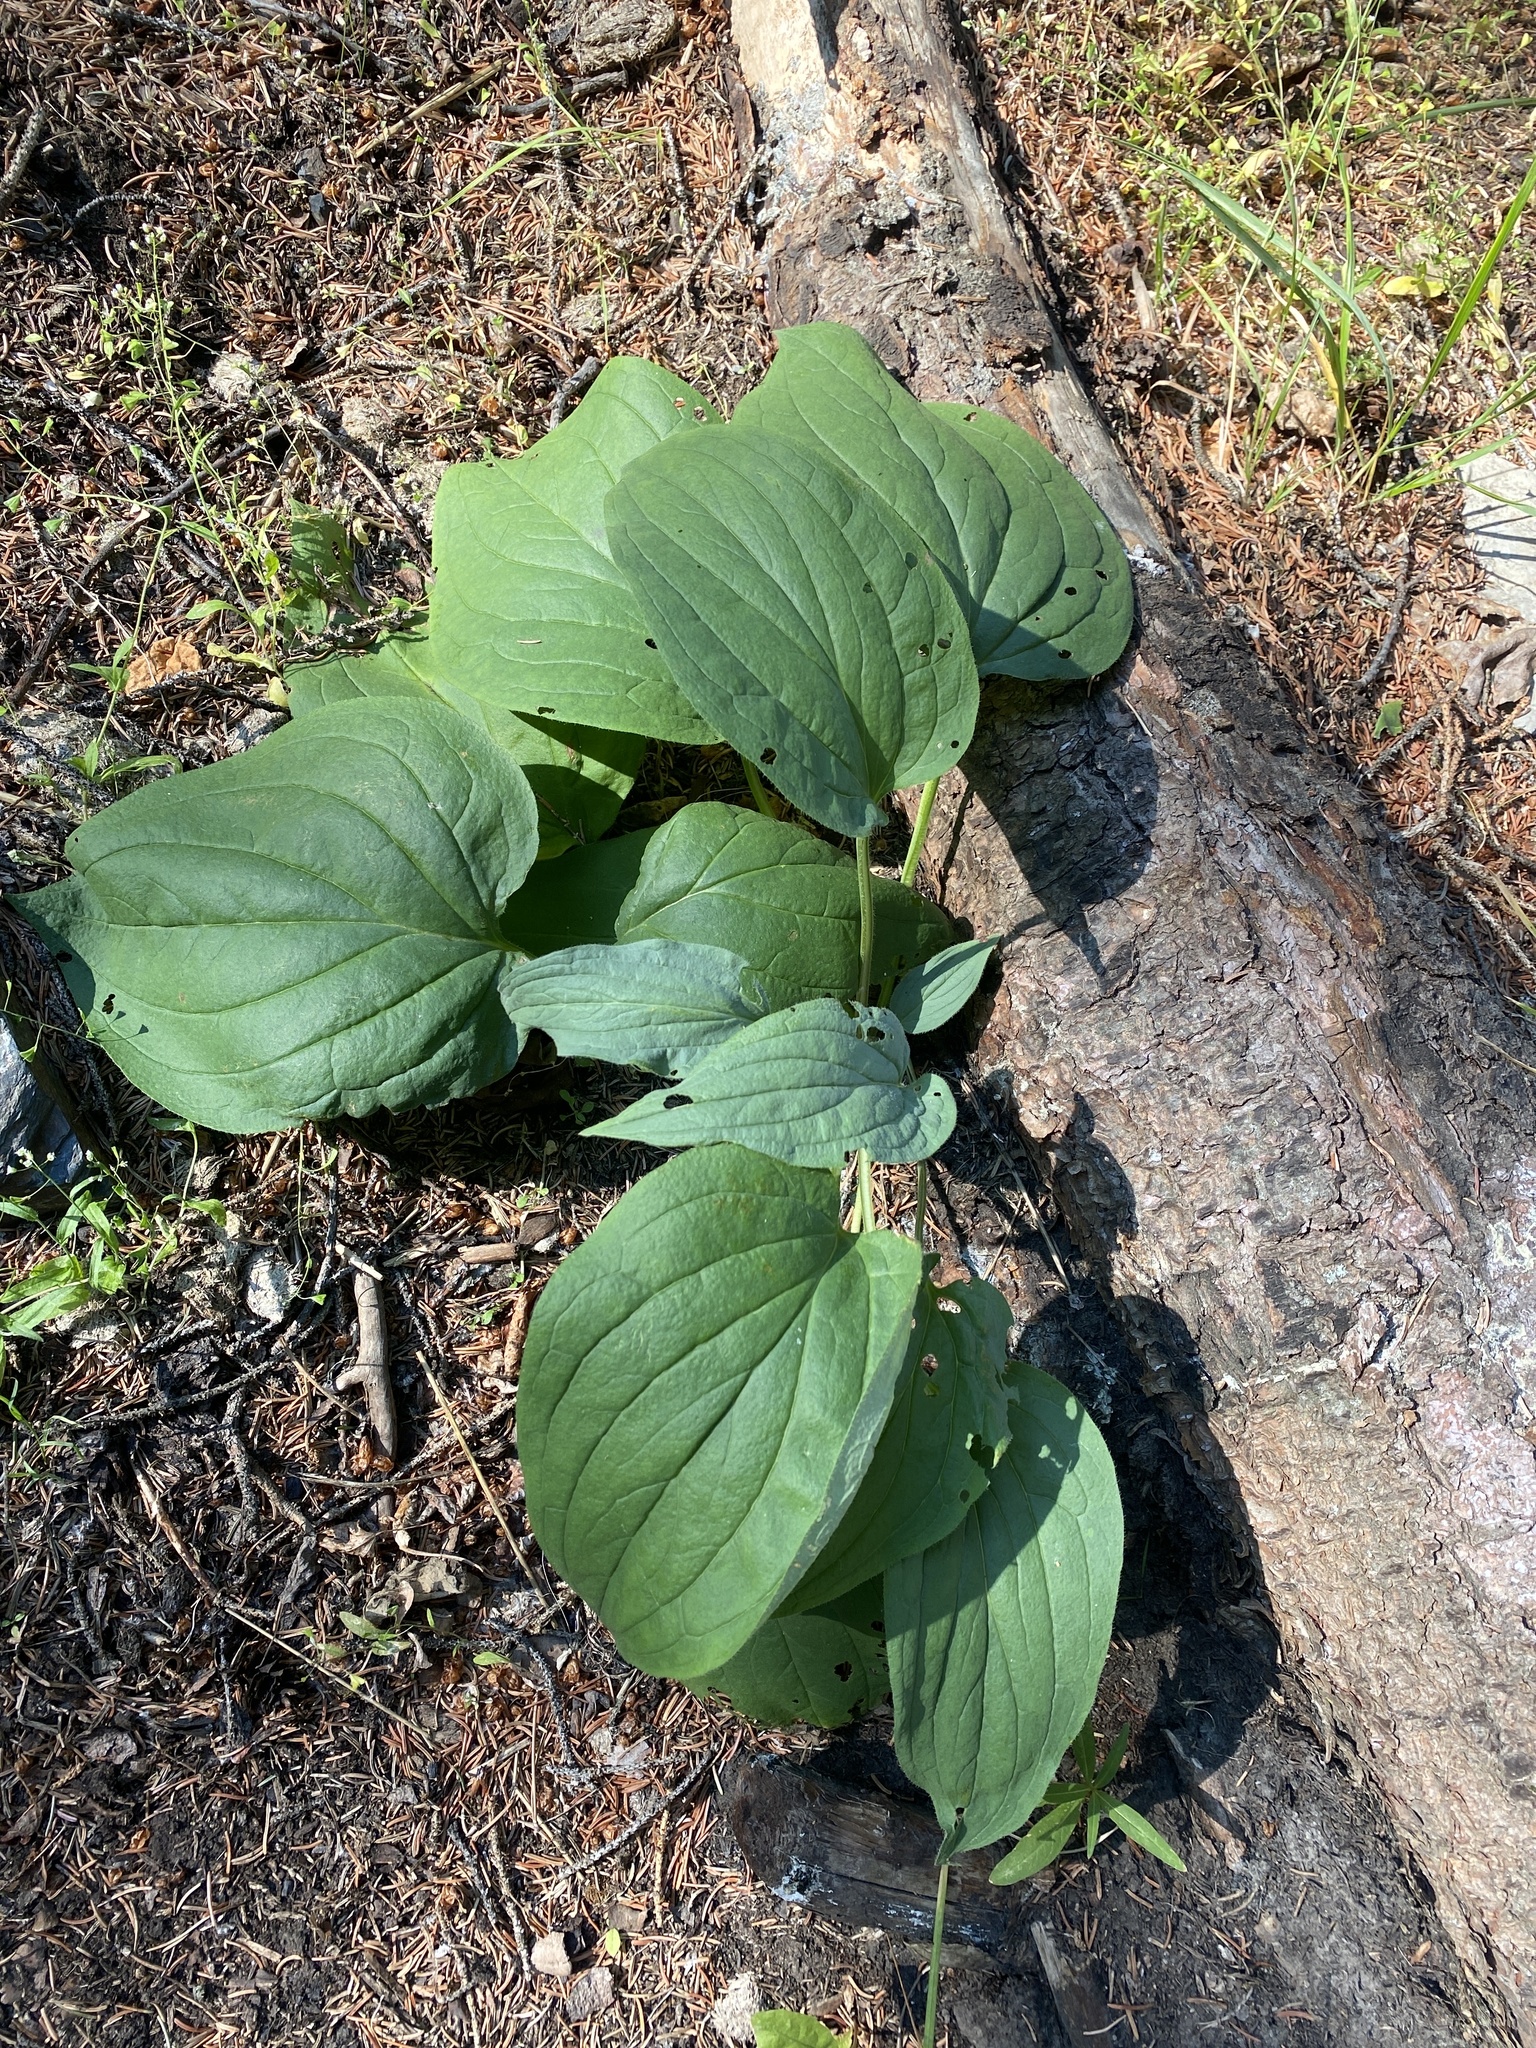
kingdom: Plantae
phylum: Tracheophyta
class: Magnoliopsida
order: Boraginales
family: Boraginaceae
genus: Mertensia
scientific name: Mertensia paniculata
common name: Panicled bluebells
